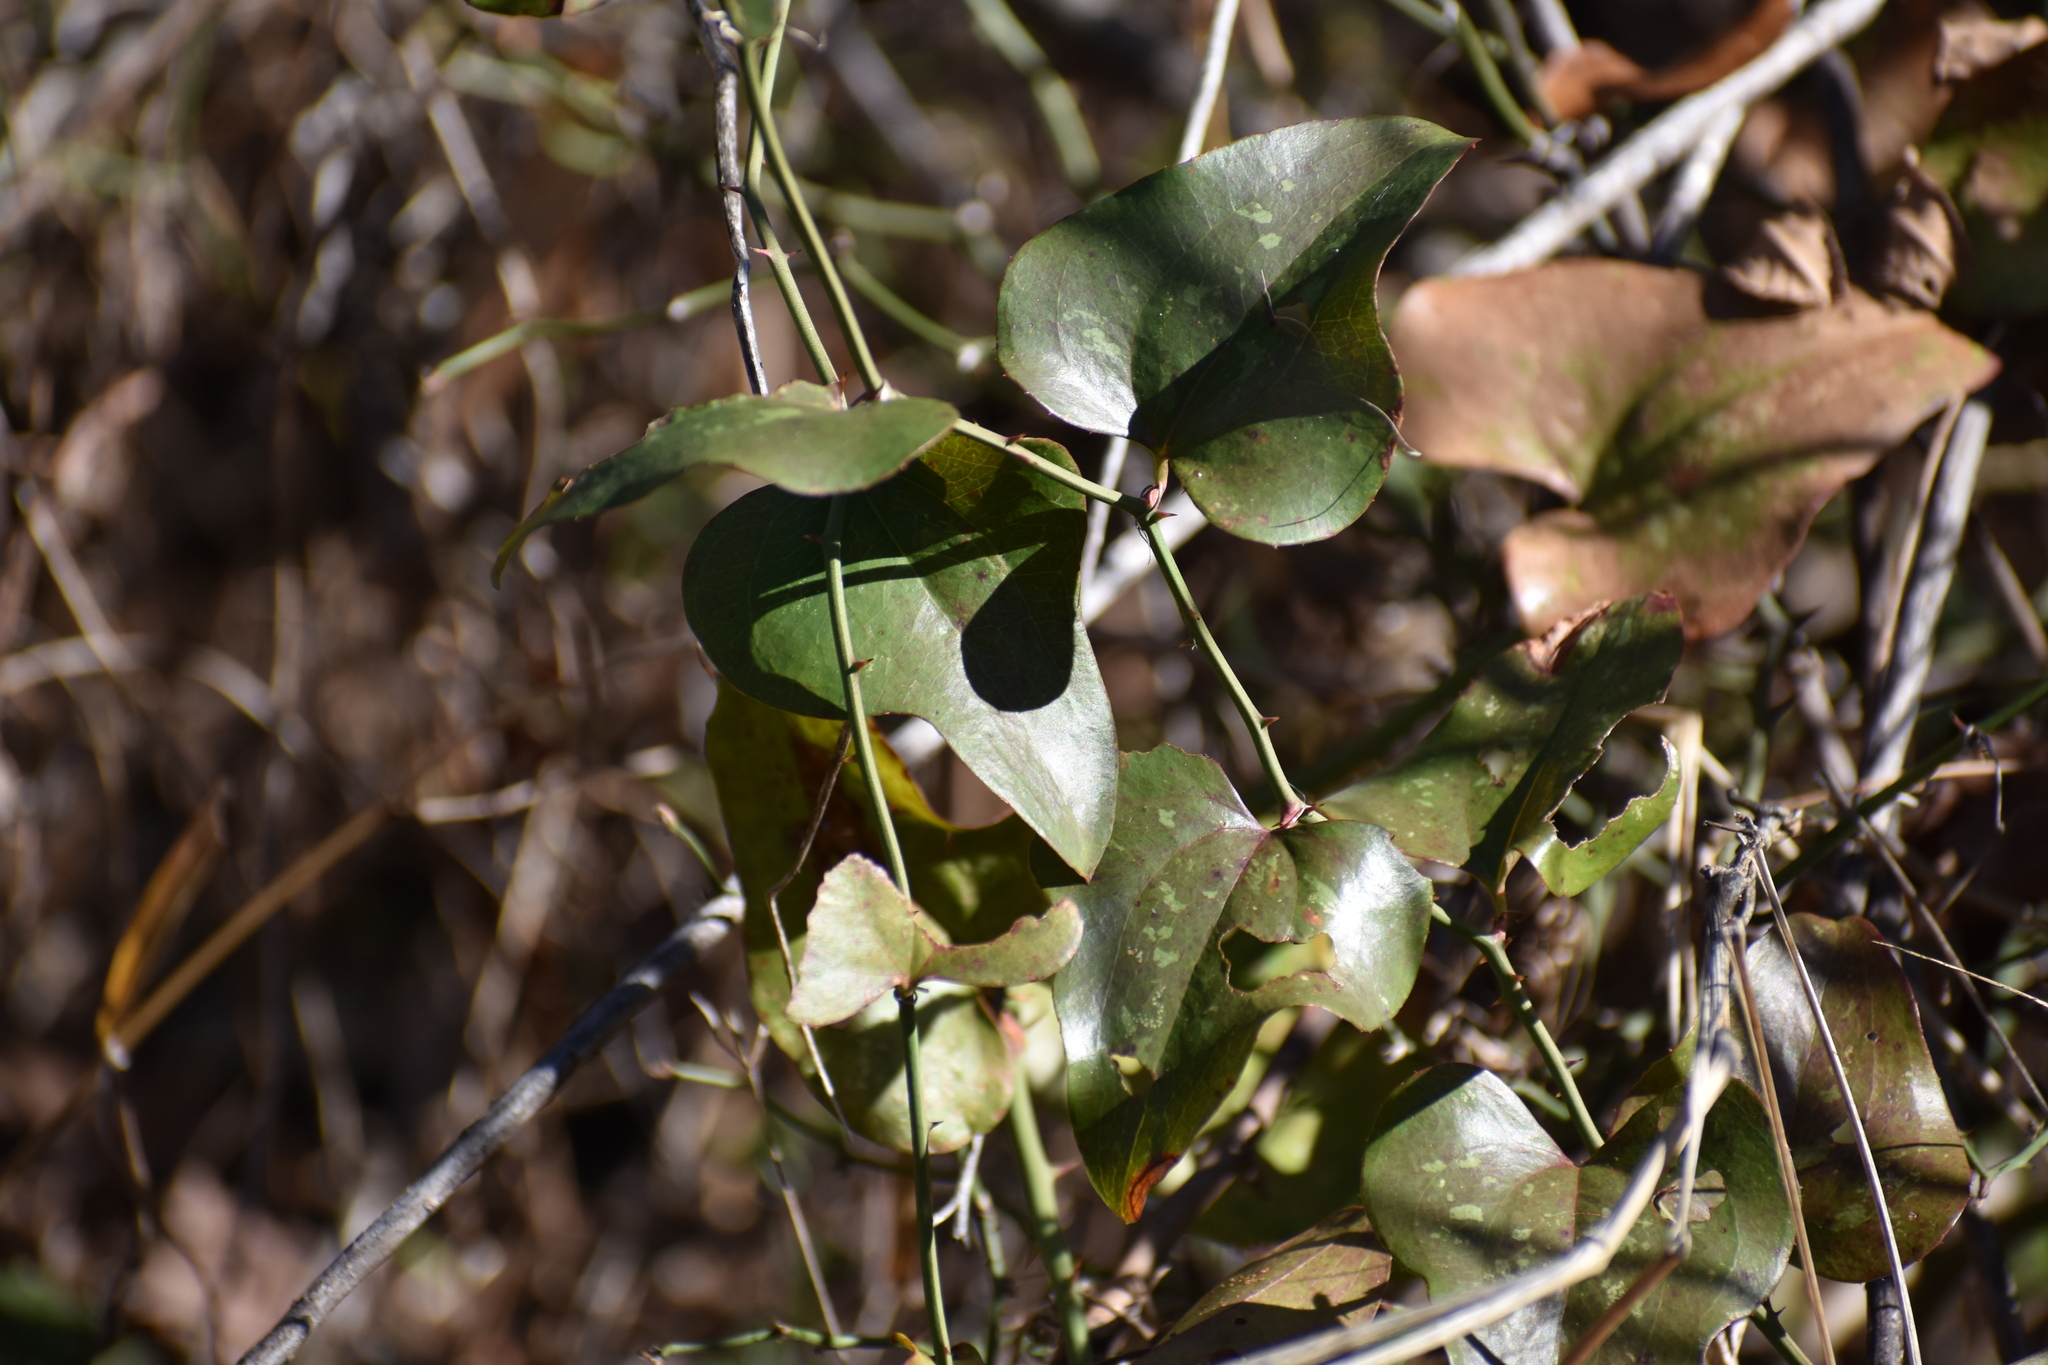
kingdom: Plantae
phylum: Tracheophyta
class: Liliopsida
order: Liliales
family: Smilacaceae
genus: Smilax
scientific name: Smilax bona-nox
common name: Catbrier
